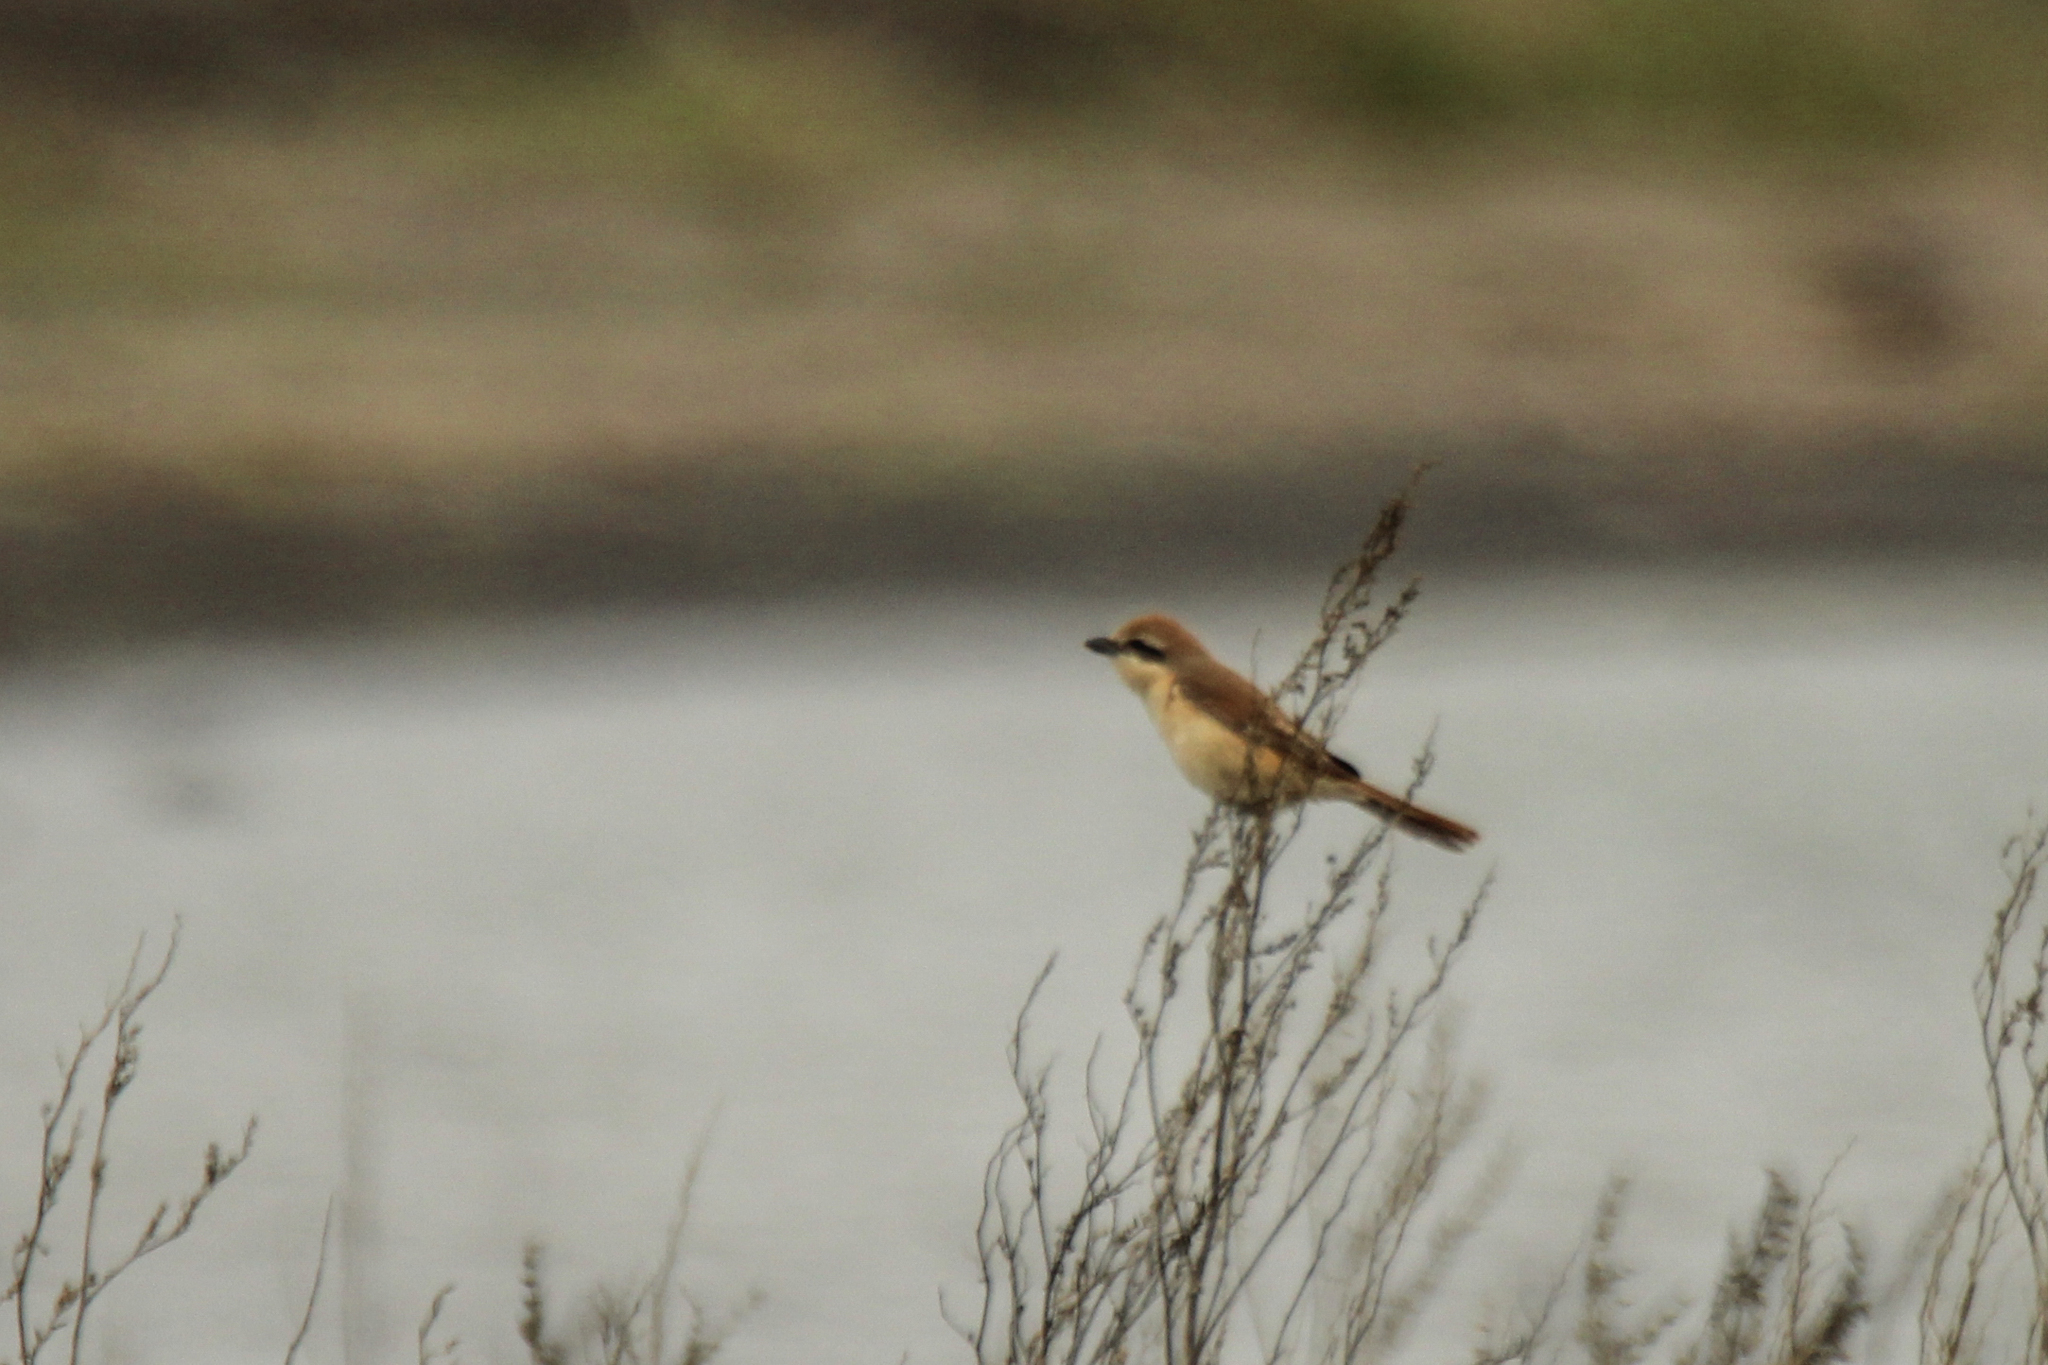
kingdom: Animalia
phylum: Chordata
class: Aves
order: Passeriformes
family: Laniidae
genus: Lanius
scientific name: Lanius cristatus
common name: Brown shrike
